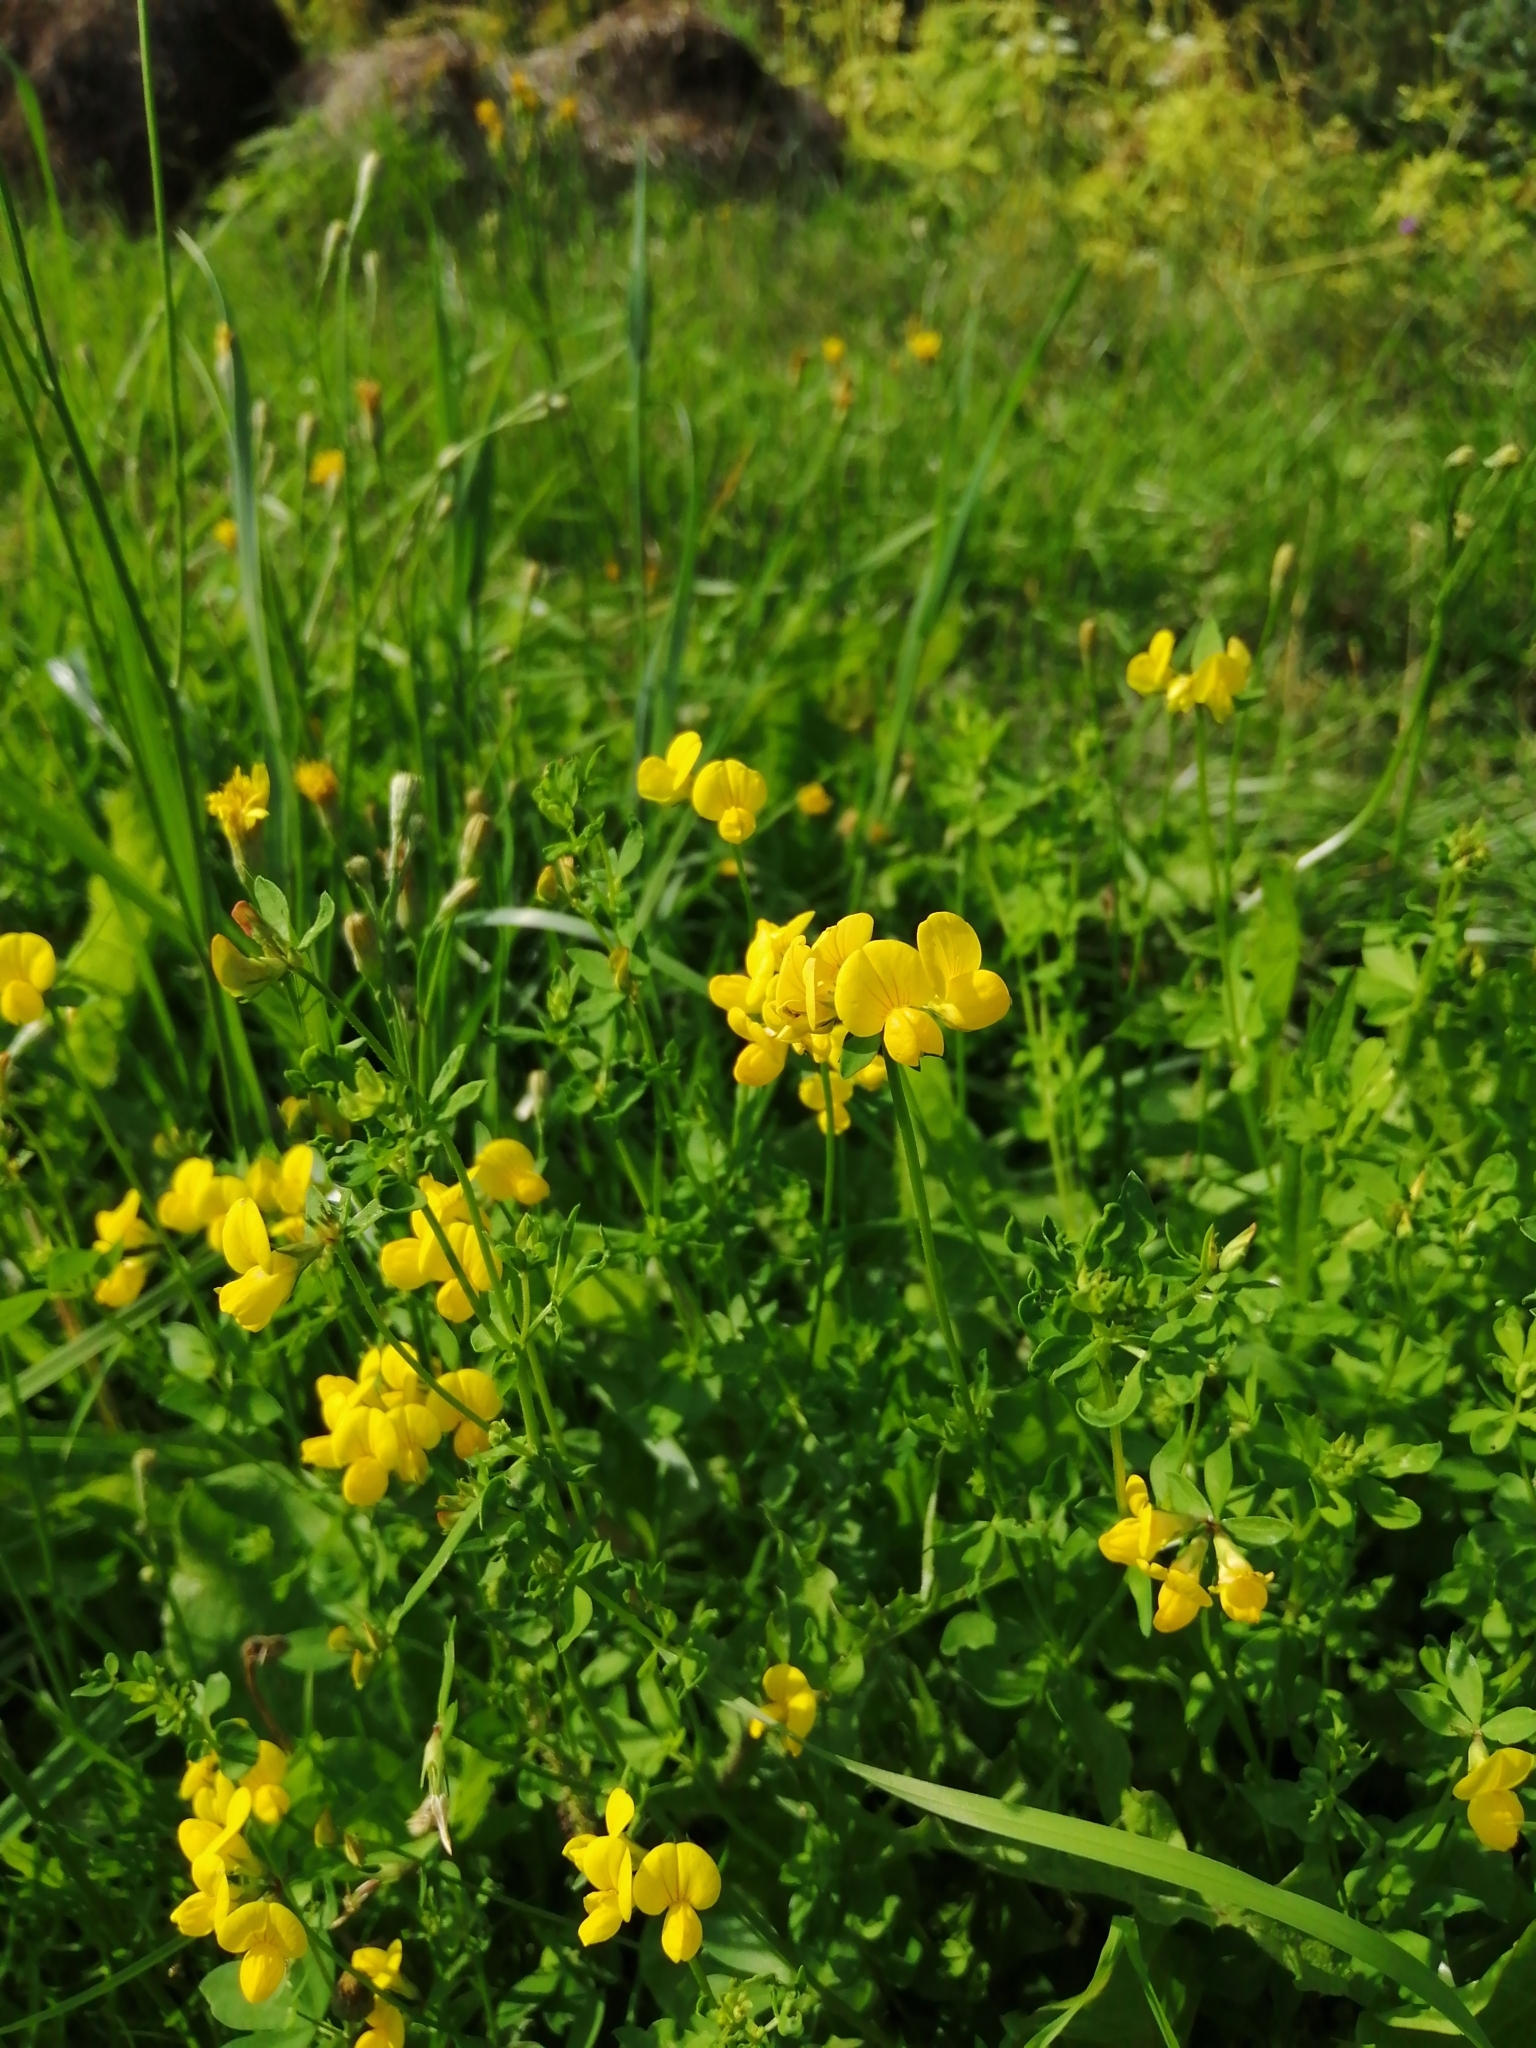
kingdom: Plantae
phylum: Tracheophyta
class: Magnoliopsida
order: Fabales
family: Fabaceae
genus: Lotus
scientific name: Lotus corniculatus
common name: Common bird's-foot-trefoil
